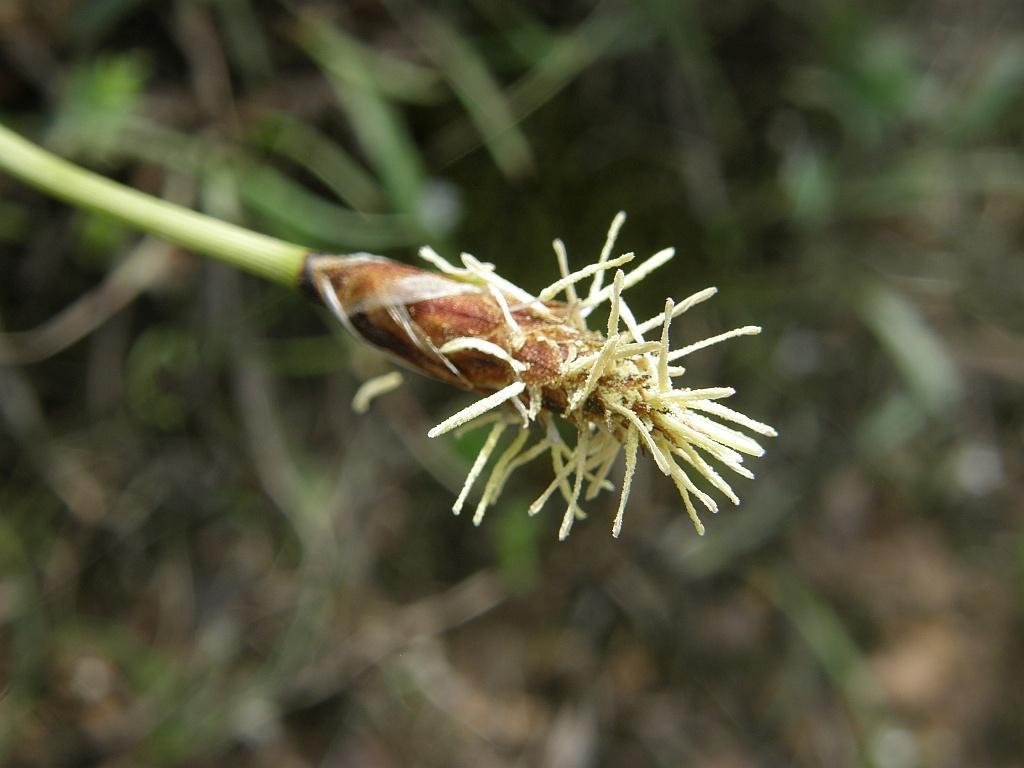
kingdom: Plantae
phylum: Tracheophyta
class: Liliopsida
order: Poales
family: Cyperaceae
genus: Ficinia
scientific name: Ficinia deusta
